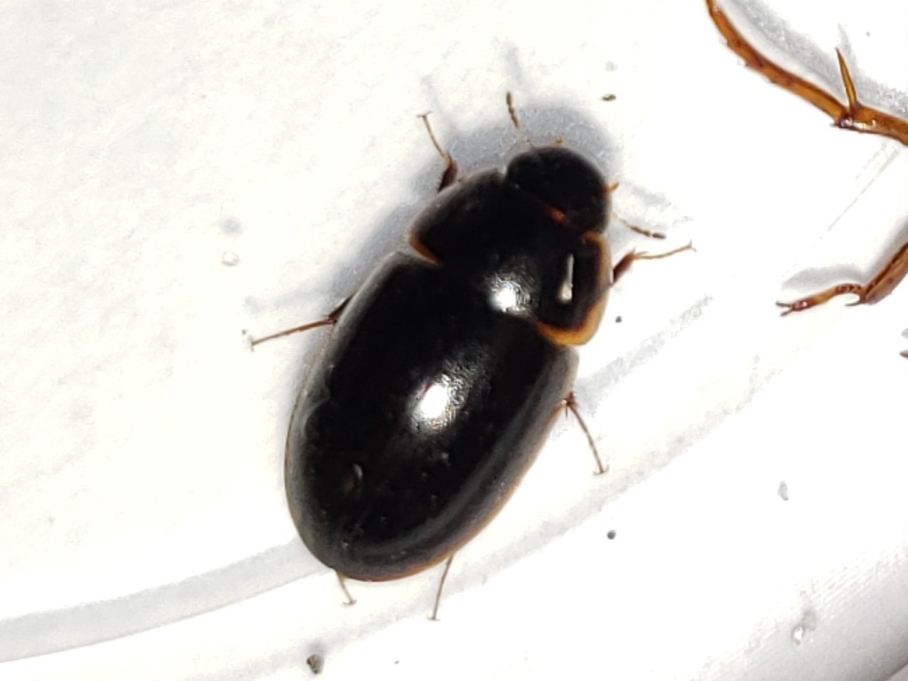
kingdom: Animalia
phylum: Arthropoda
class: Insecta
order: Coleoptera
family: Hydrophilidae
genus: Enochrus
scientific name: Enochrus fimbriatus
